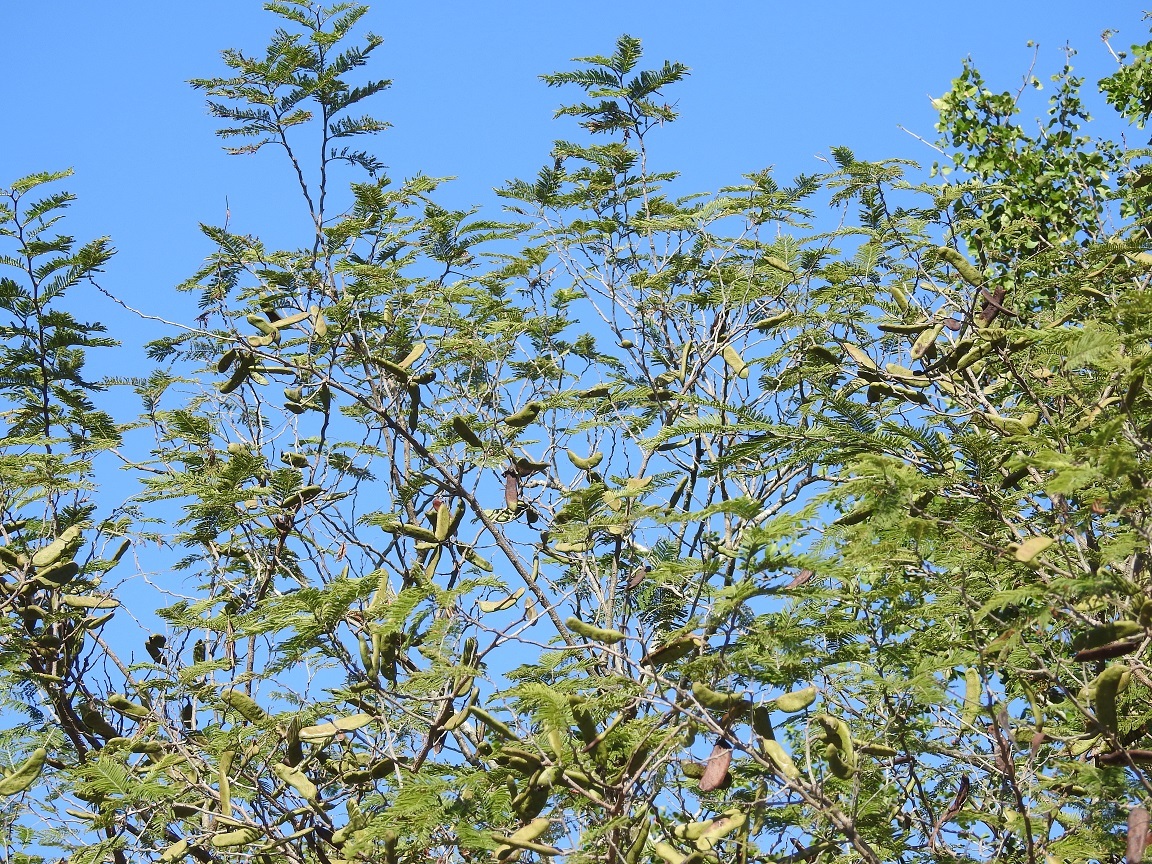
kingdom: Plantae
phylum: Tracheophyta
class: Magnoliopsida
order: Fabales
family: Fabaceae
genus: Vachellia
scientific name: Vachellia pennatula
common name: Fern-leaf acacia
